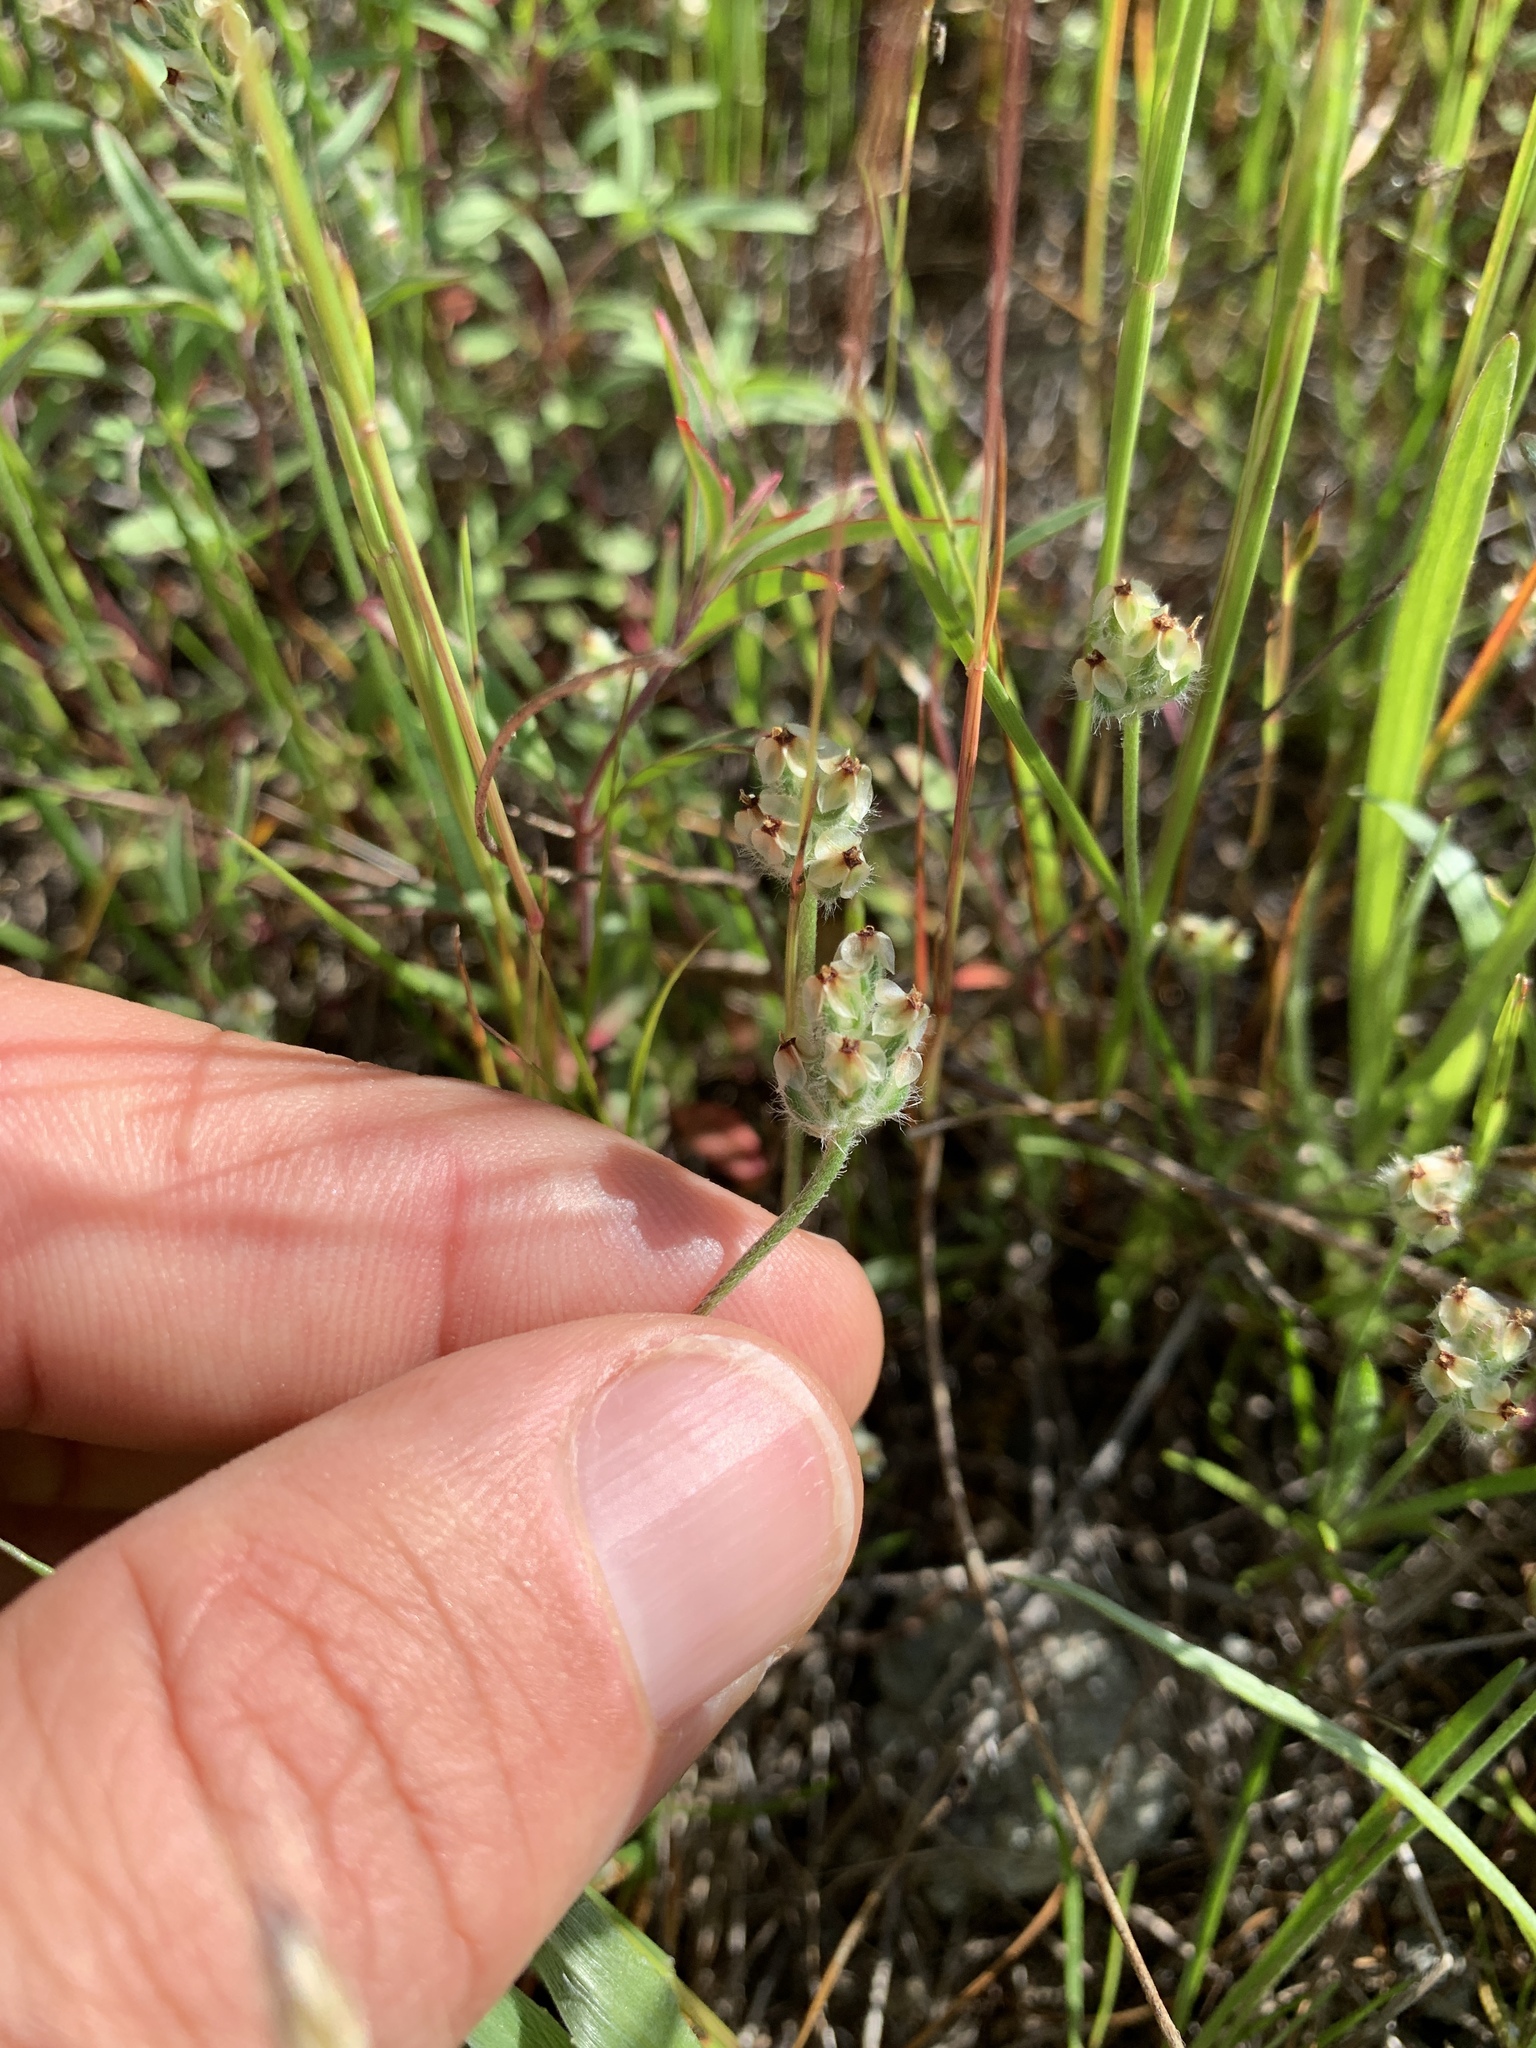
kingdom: Plantae
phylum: Tracheophyta
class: Magnoliopsida
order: Lamiales
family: Plantaginaceae
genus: Plantago
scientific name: Plantago erecta
